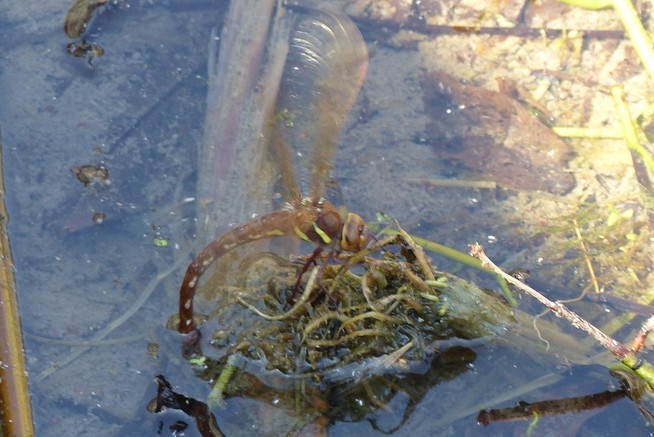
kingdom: Animalia
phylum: Arthropoda
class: Insecta
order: Odonata
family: Aeshnidae
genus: Aeshna
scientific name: Aeshna grandis
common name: Brown hawker
